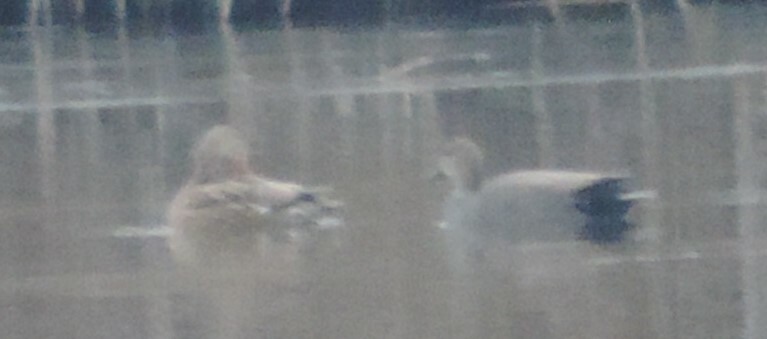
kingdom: Animalia
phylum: Chordata
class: Aves
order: Anseriformes
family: Anatidae
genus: Mareca
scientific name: Mareca strepera
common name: Gadwall
